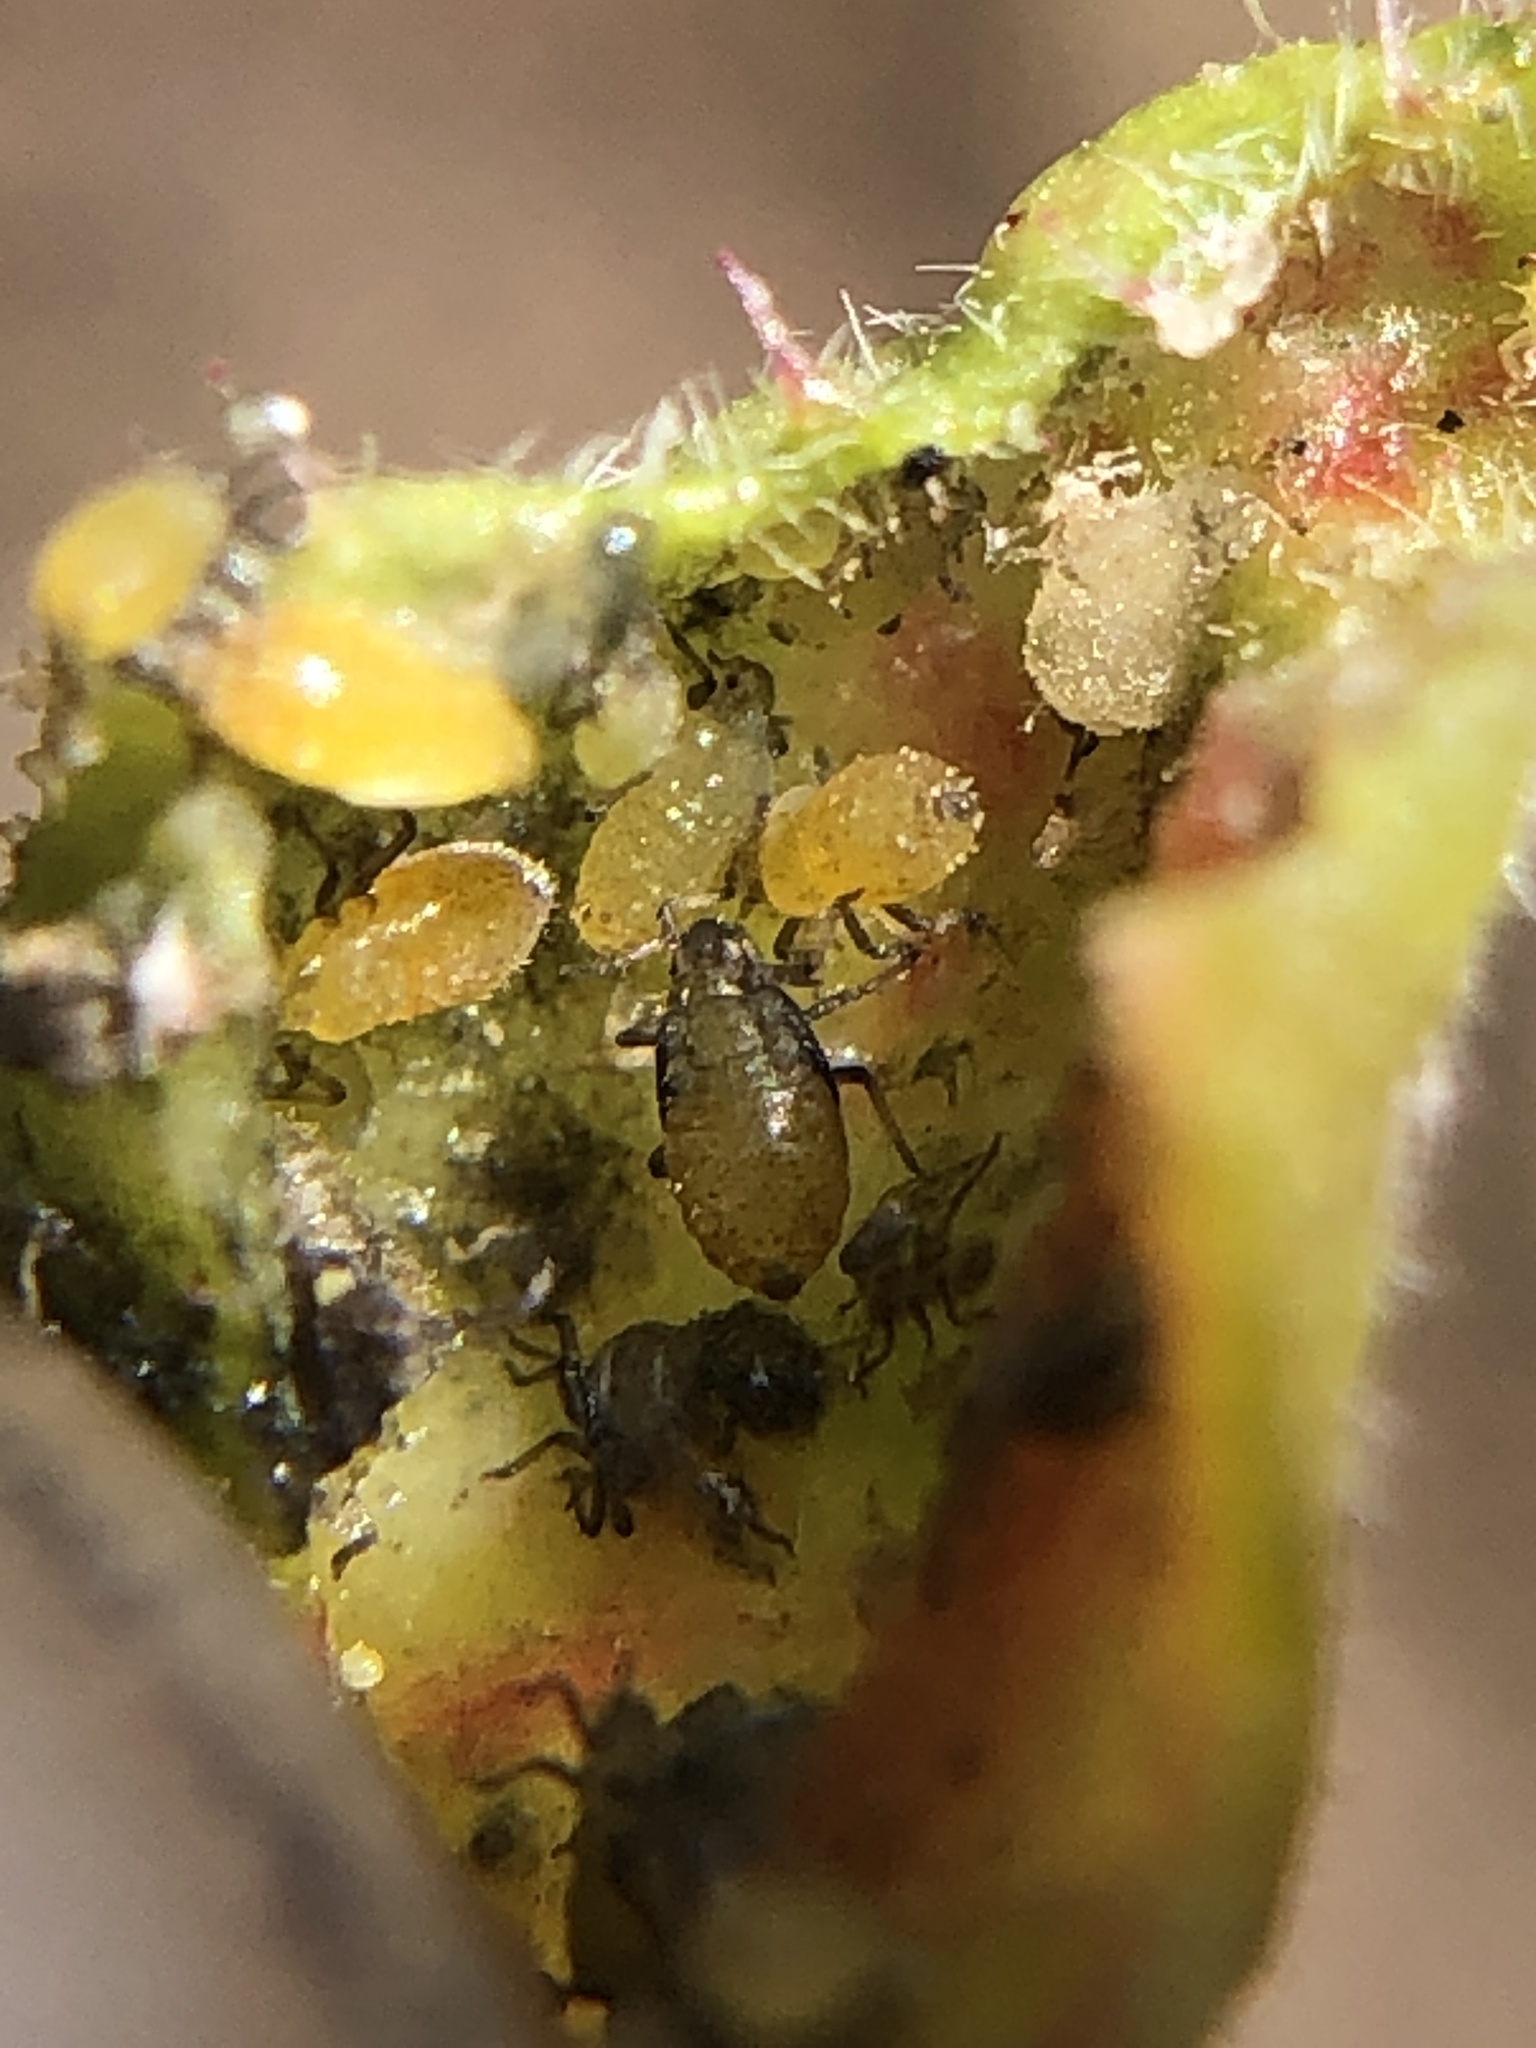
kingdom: Animalia
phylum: Arthropoda
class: Insecta
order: Hemiptera
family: Aphididae
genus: Tamalia
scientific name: Tamalia coweni
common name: Manzanita leafgall aphid
